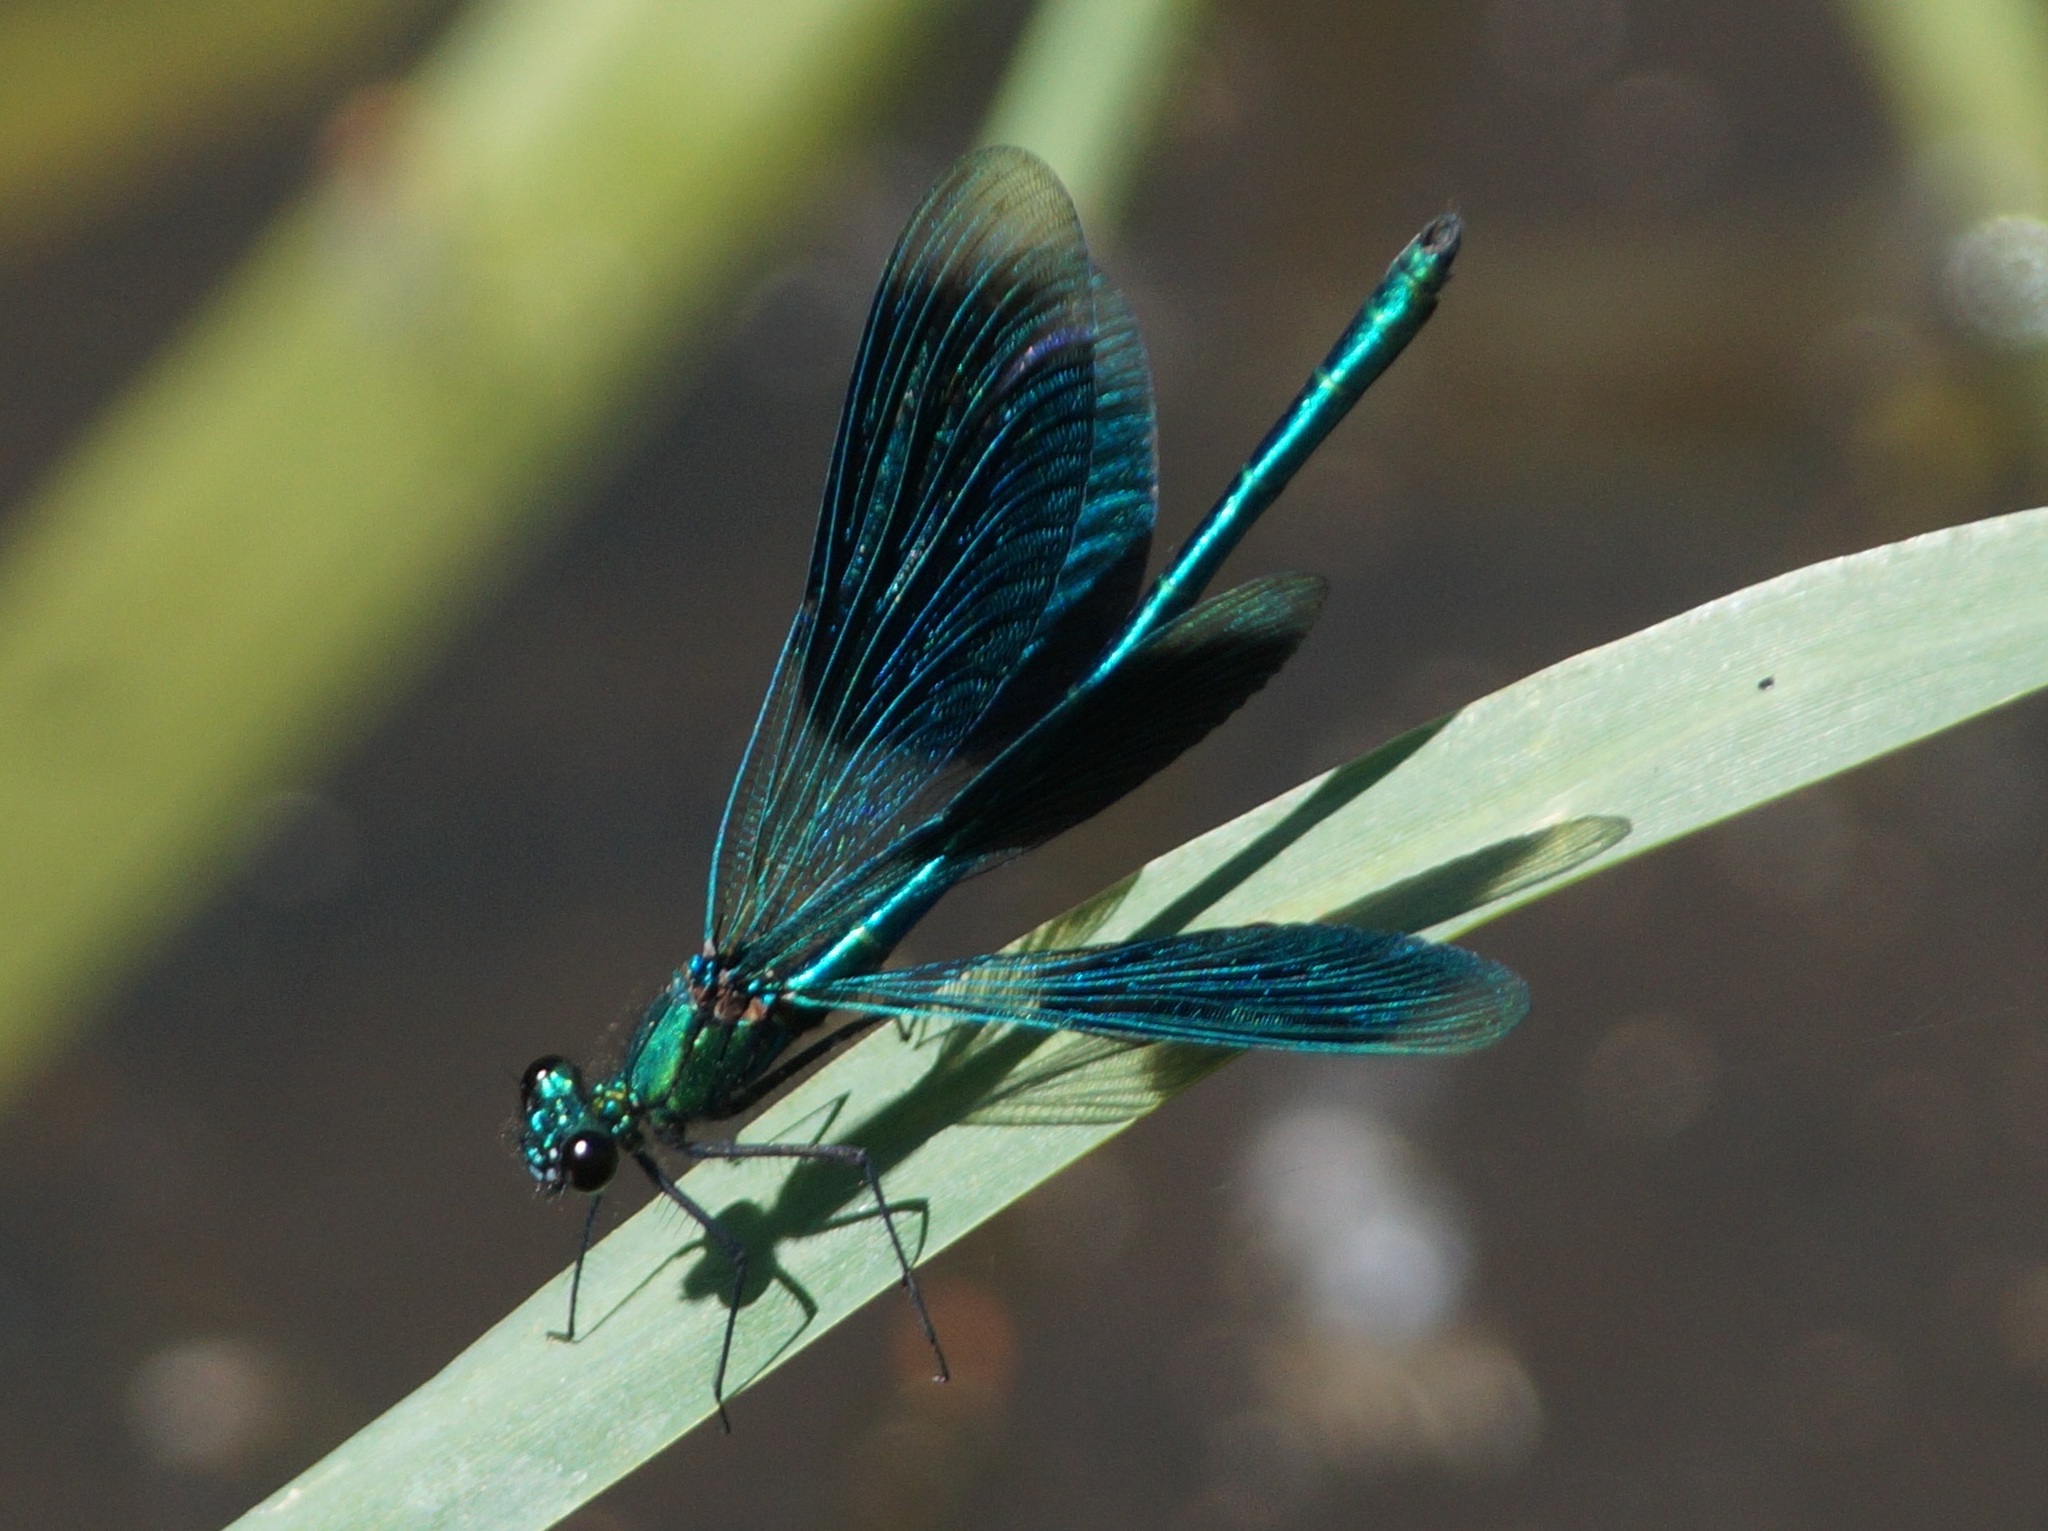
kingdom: Animalia
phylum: Arthropoda
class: Insecta
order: Odonata
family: Calopterygidae
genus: Calopteryx
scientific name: Calopteryx splendens
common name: Banded demoiselle
